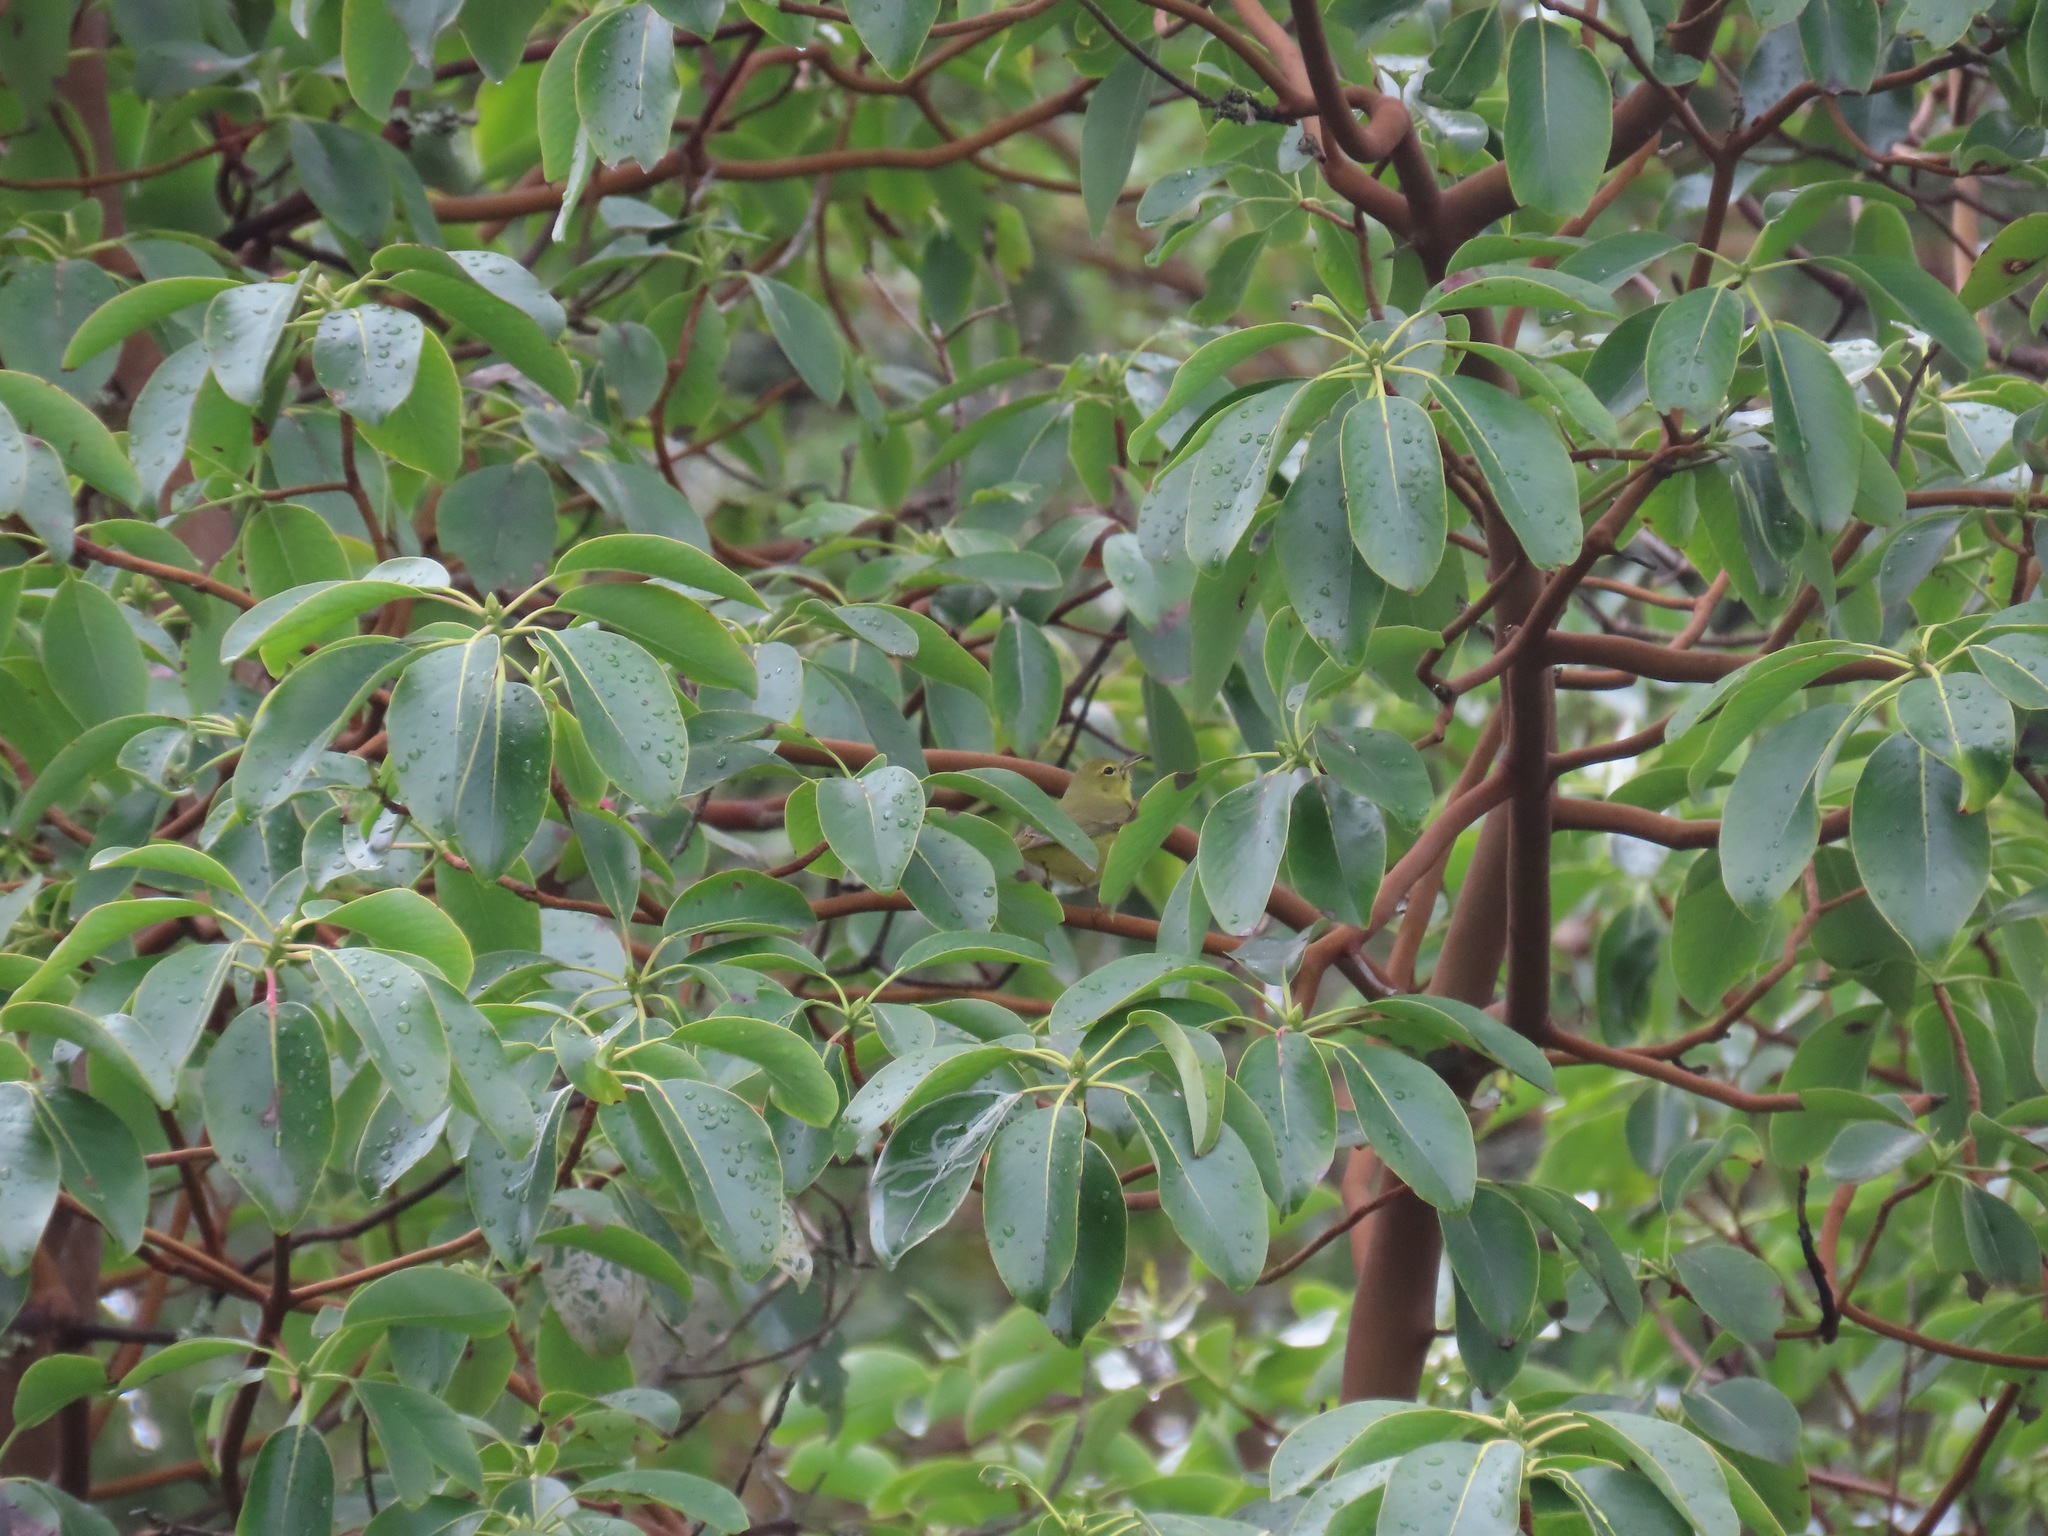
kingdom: Animalia
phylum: Chordata
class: Aves
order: Passeriformes
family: Parulidae
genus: Leiothlypis
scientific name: Leiothlypis celata
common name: Orange-crowned warbler
